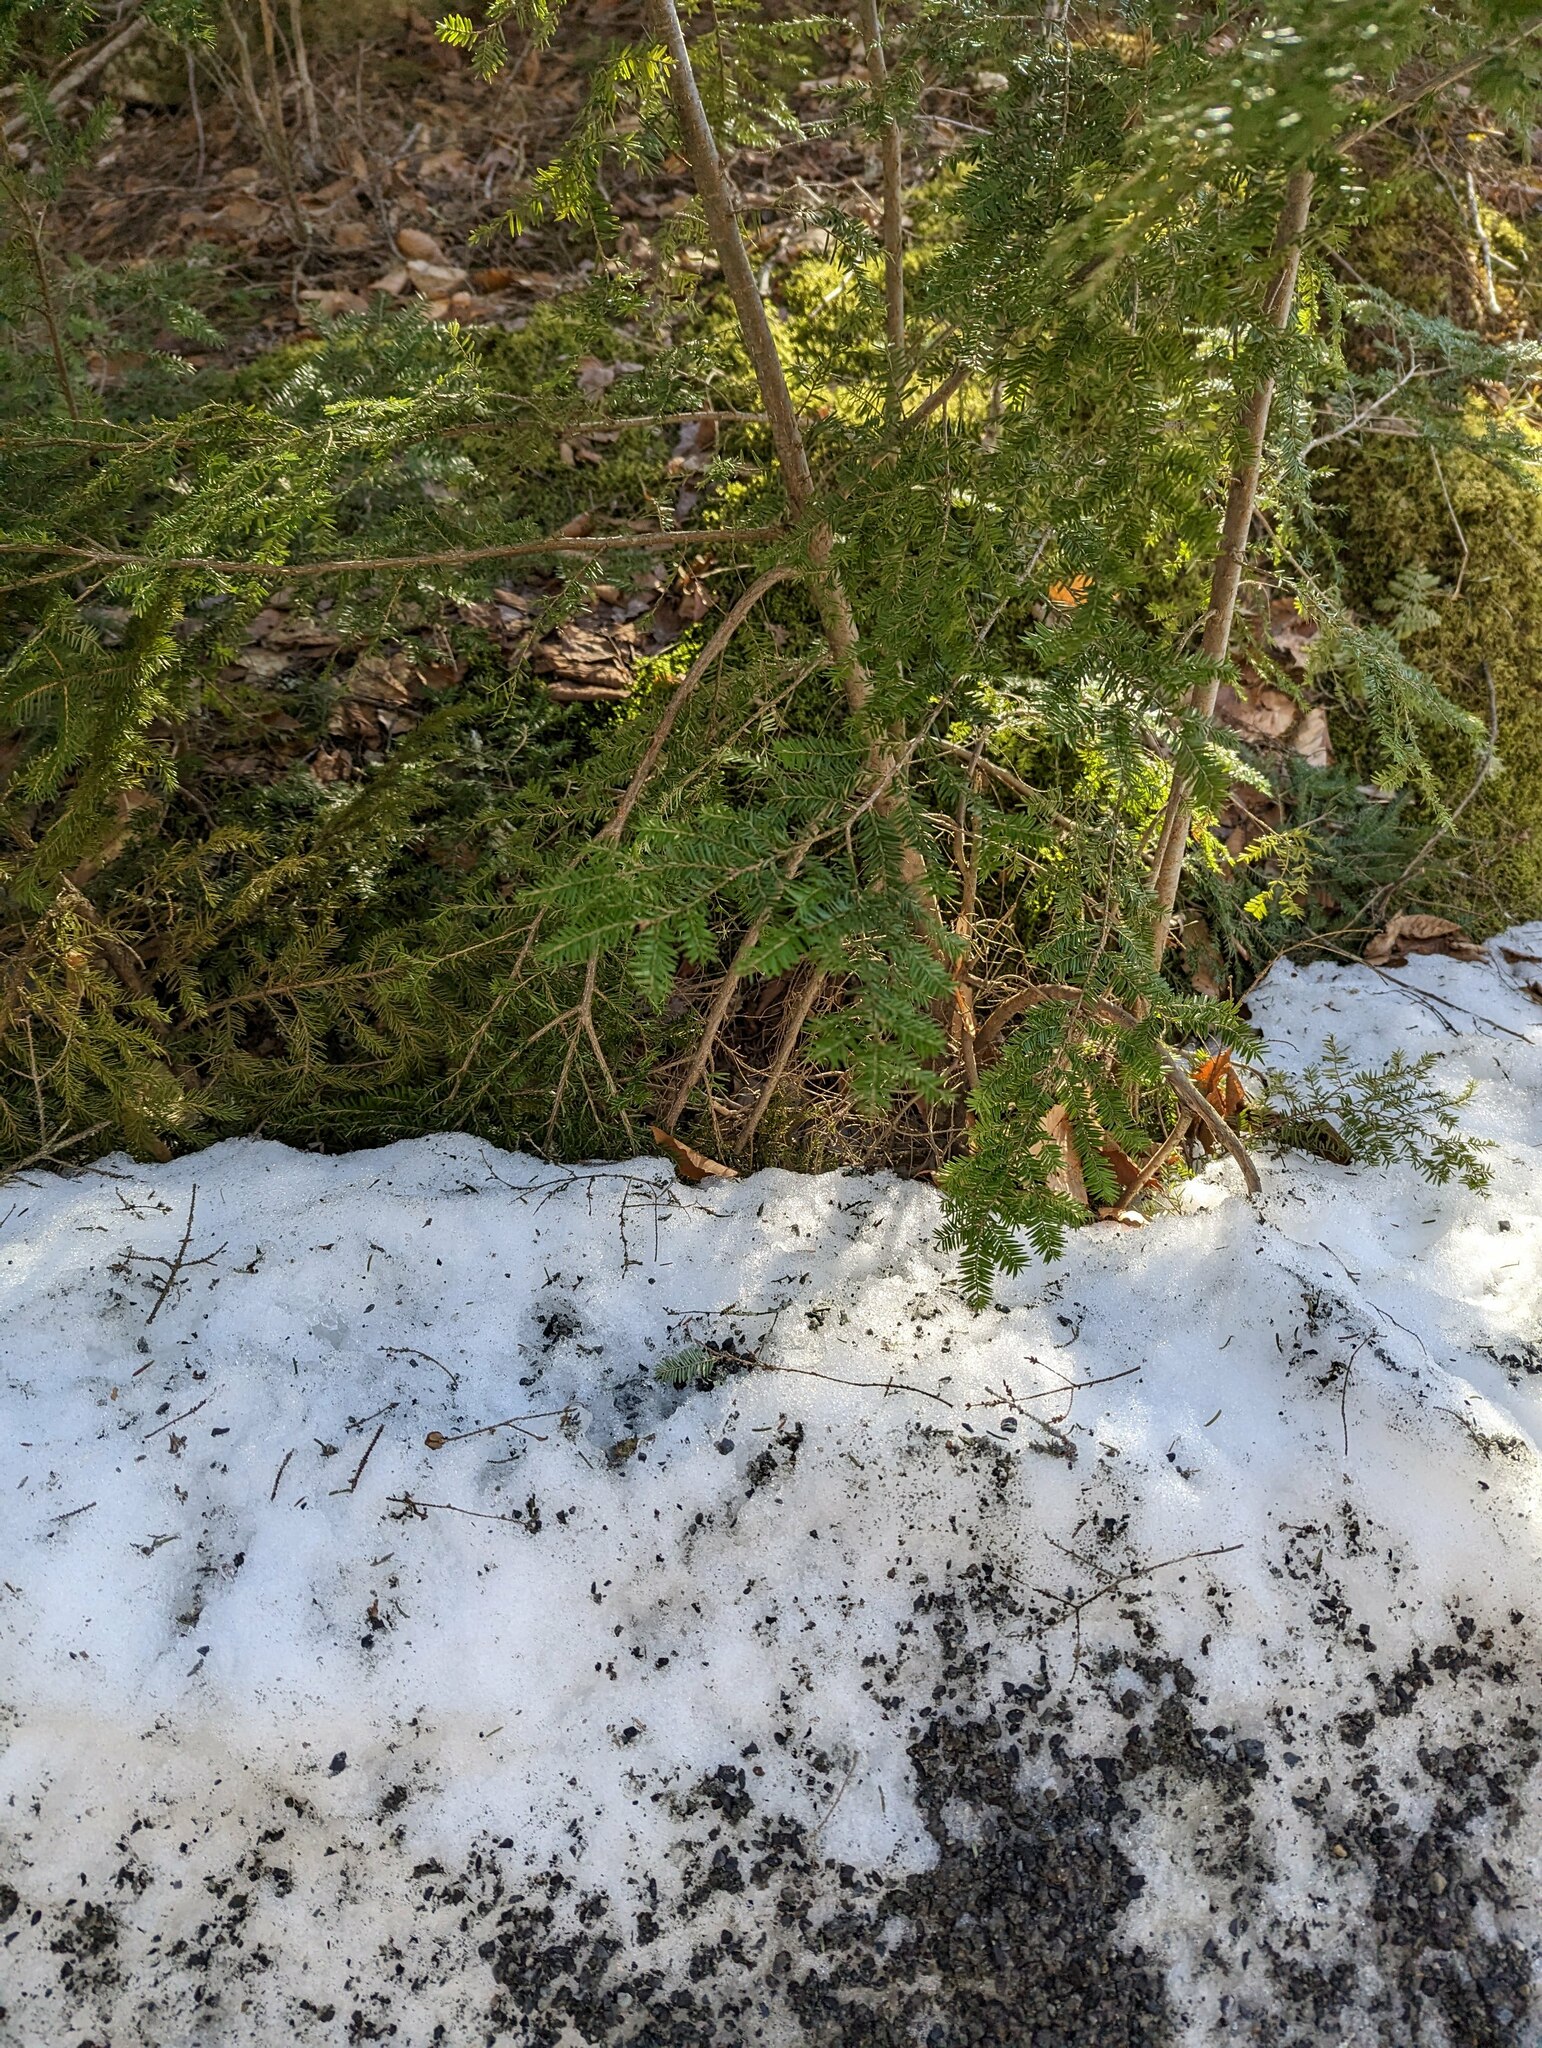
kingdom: Plantae
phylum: Tracheophyta
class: Pinopsida
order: Pinales
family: Pinaceae
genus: Tsuga
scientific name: Tsuga canadensis
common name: Eastern hemlock
